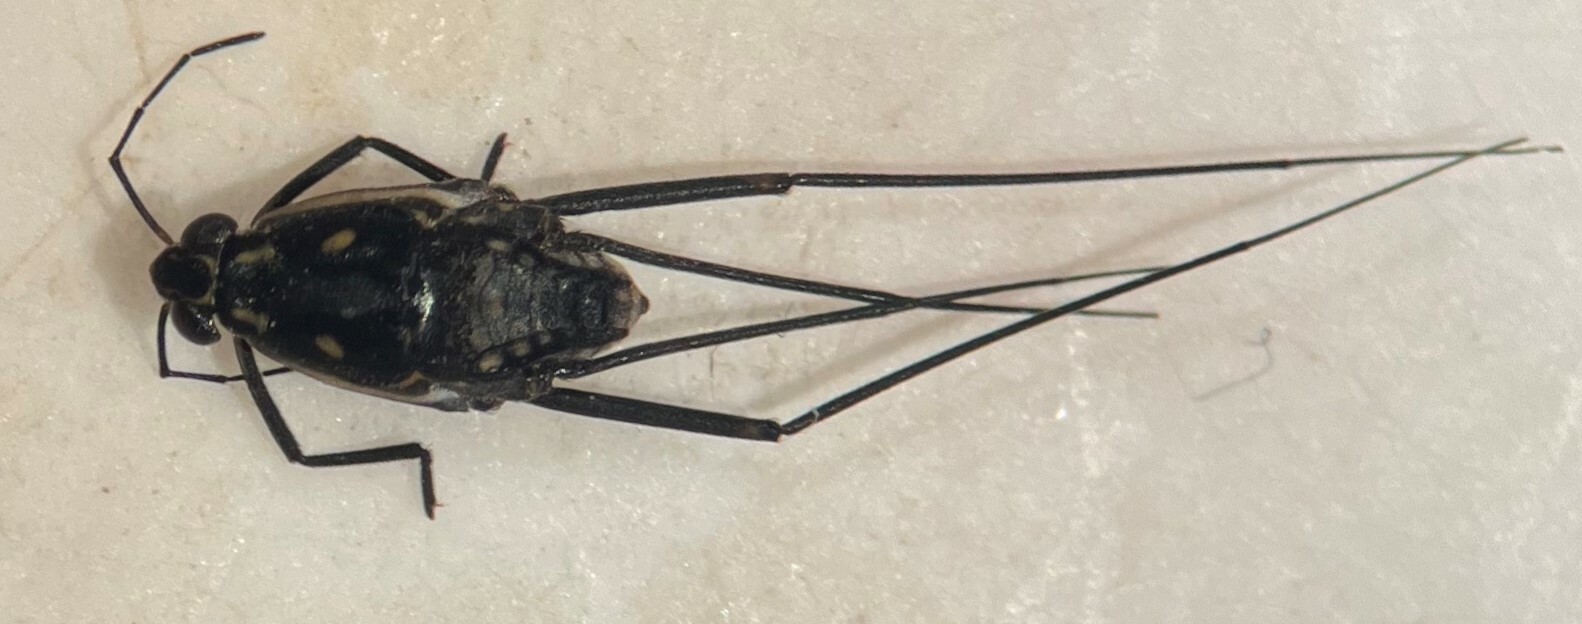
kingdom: Animalia
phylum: Arthropoda
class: Insecta
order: Hemiptera
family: Gerridae
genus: Trepobates
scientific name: Trepobates subnitidus
